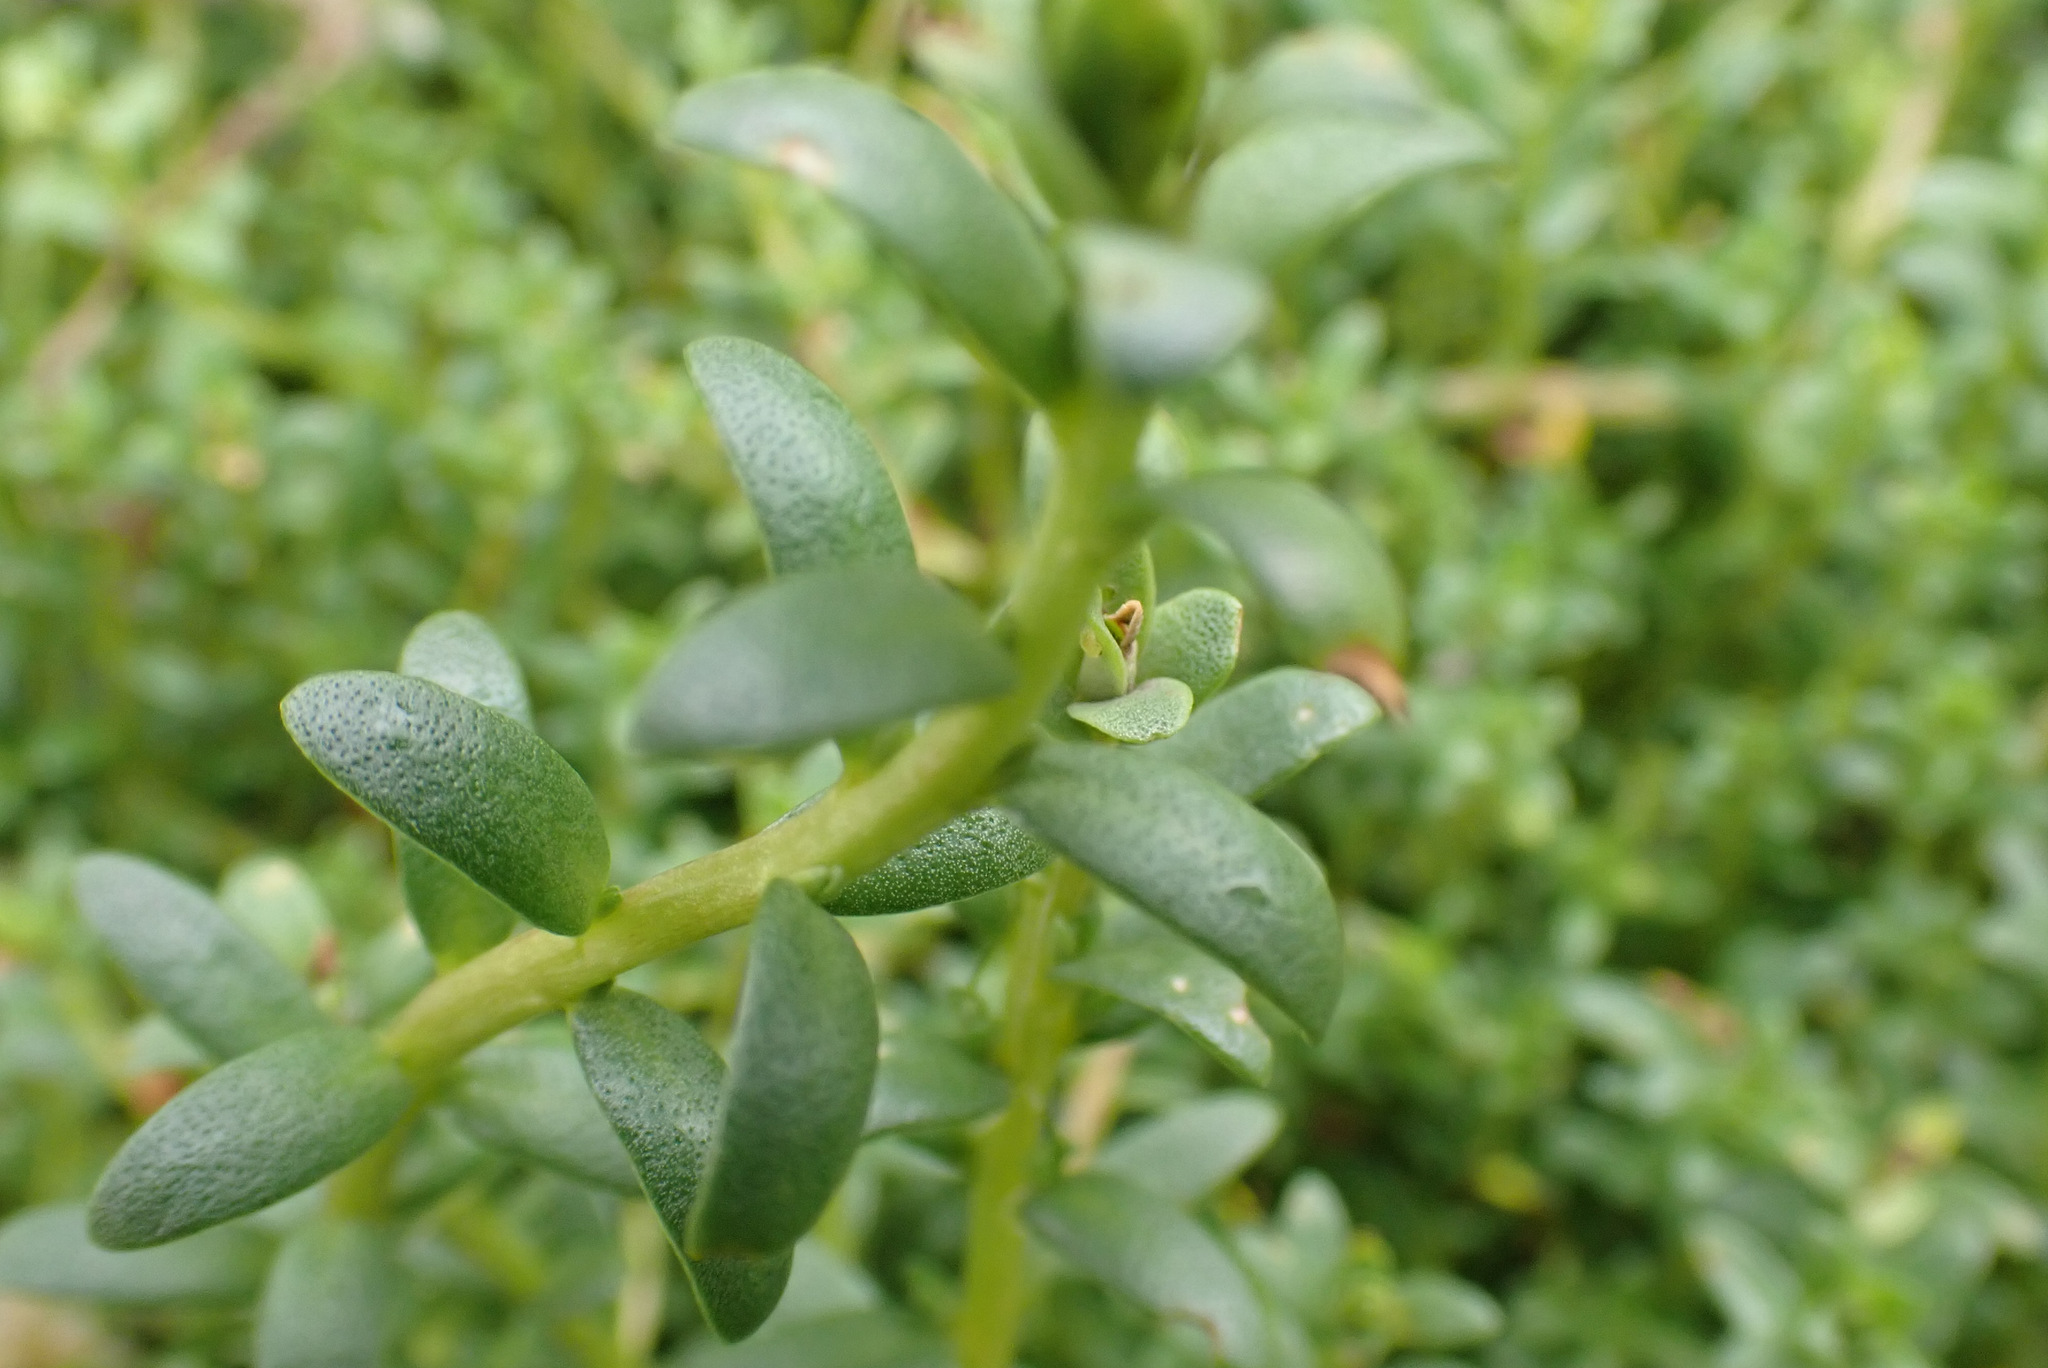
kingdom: Plantae
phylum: Tracheophyta
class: Magnoliopsida
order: Ericales
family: Primulaceae
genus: Lysimachia
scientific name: Lysimachia maritima
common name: Sea milkwort
